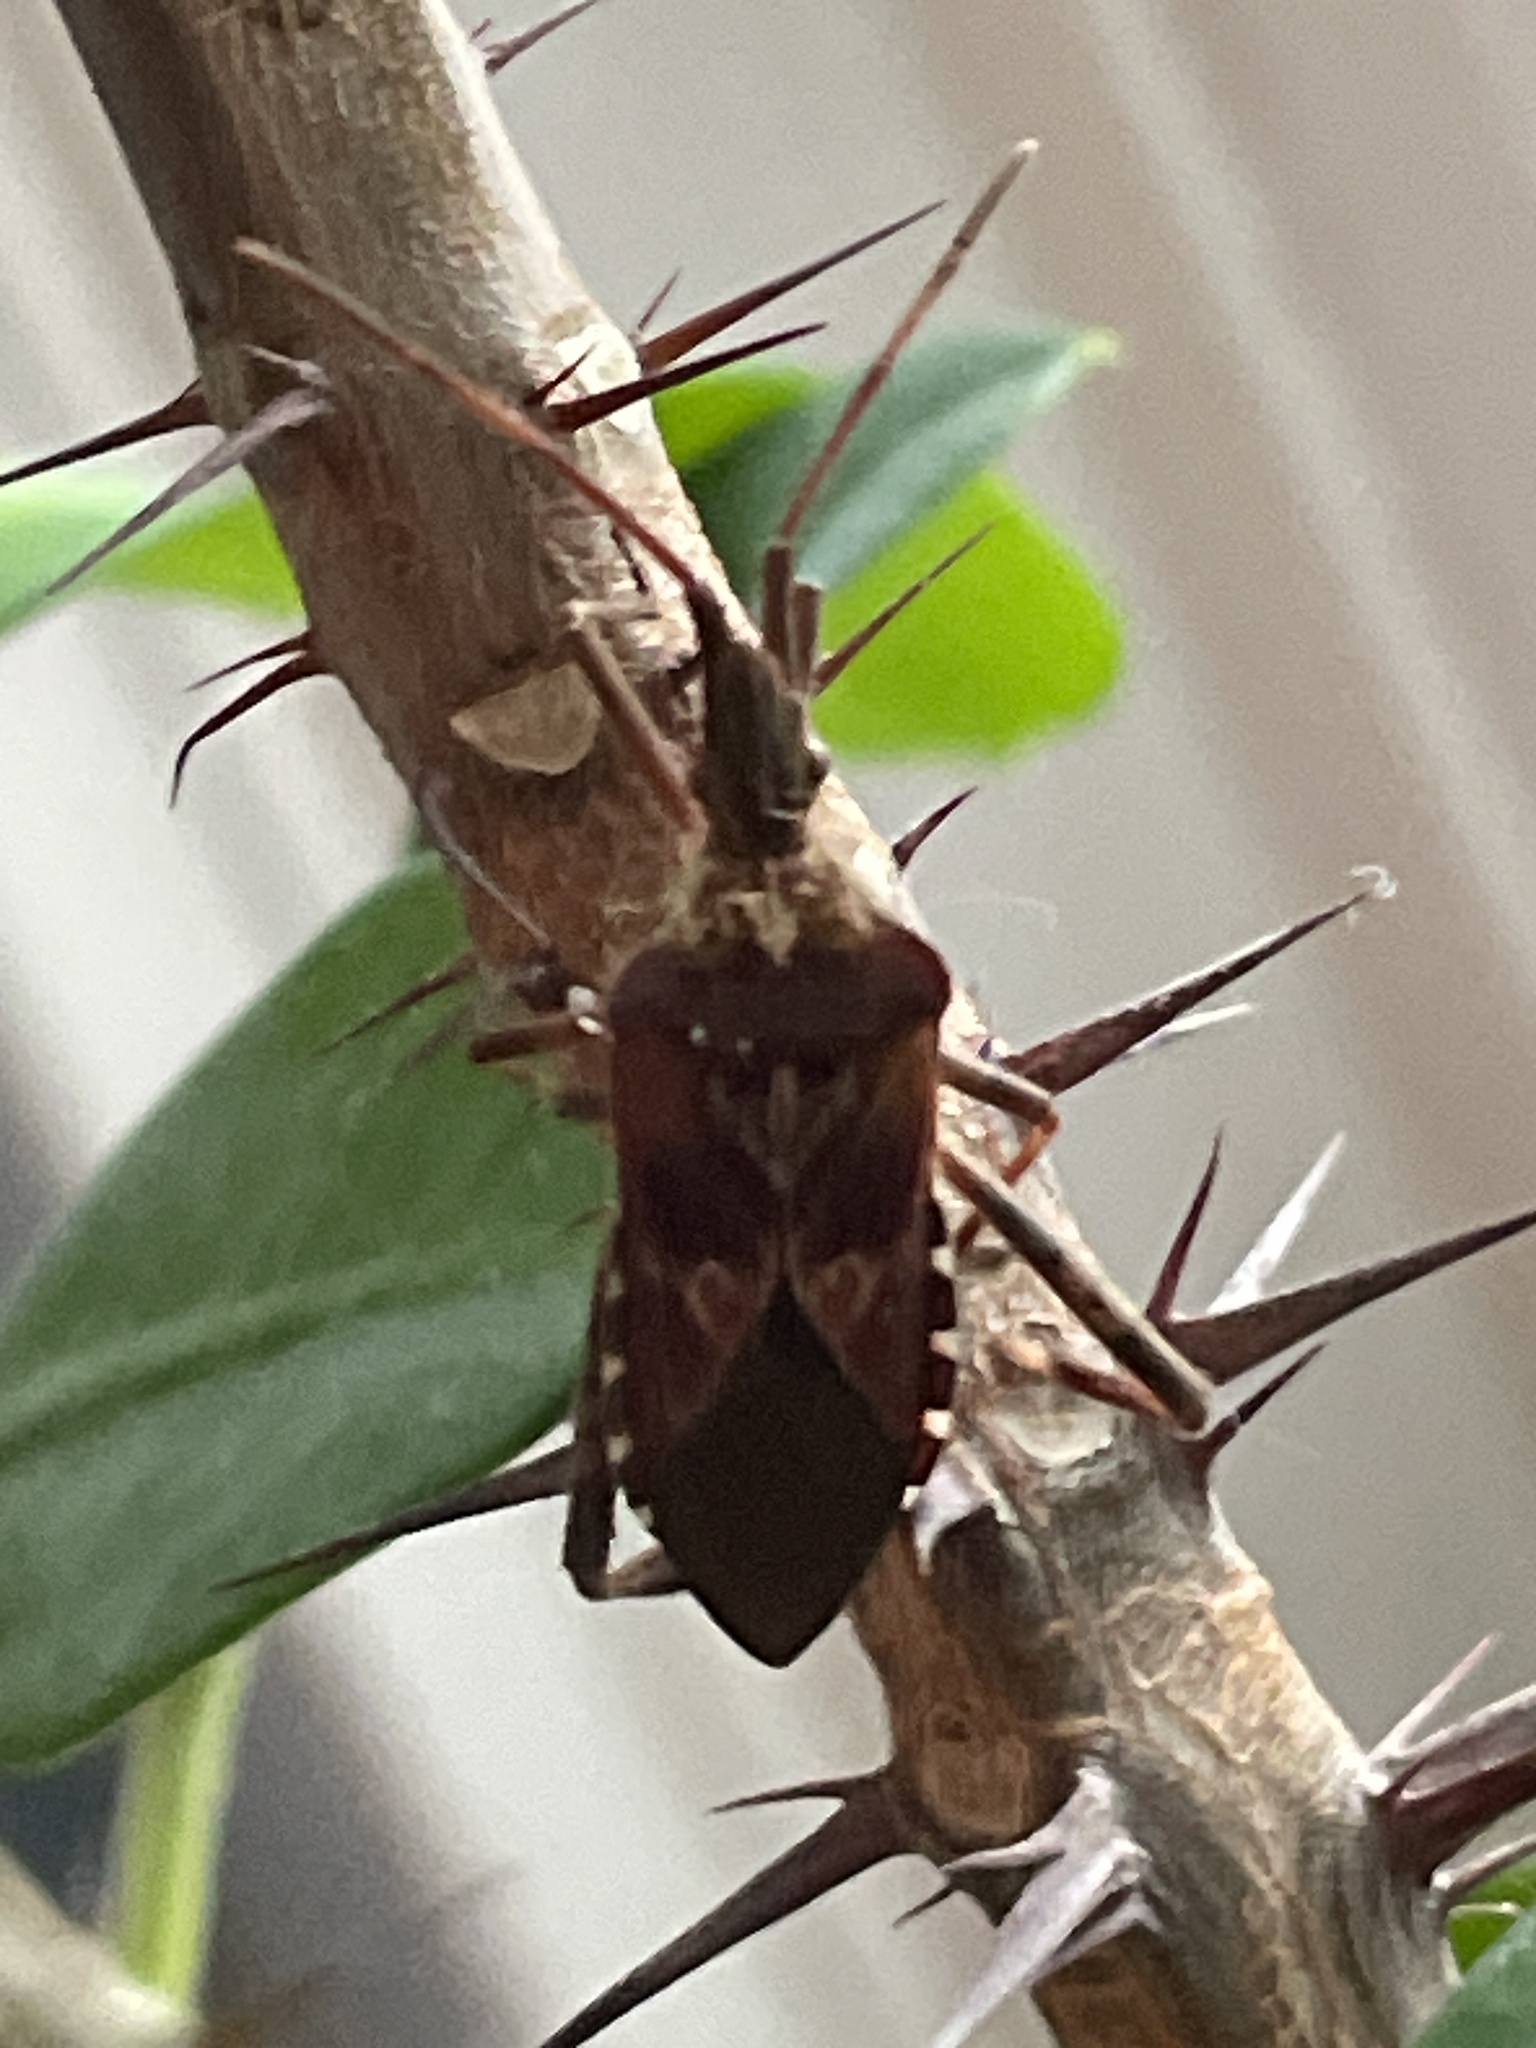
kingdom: Animalia
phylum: Arthropoda
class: Insecta
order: Hemiptera
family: Coreidae
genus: Leptoglossus
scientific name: Leptoglossus occidentalis
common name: Western conifer-seed bug
